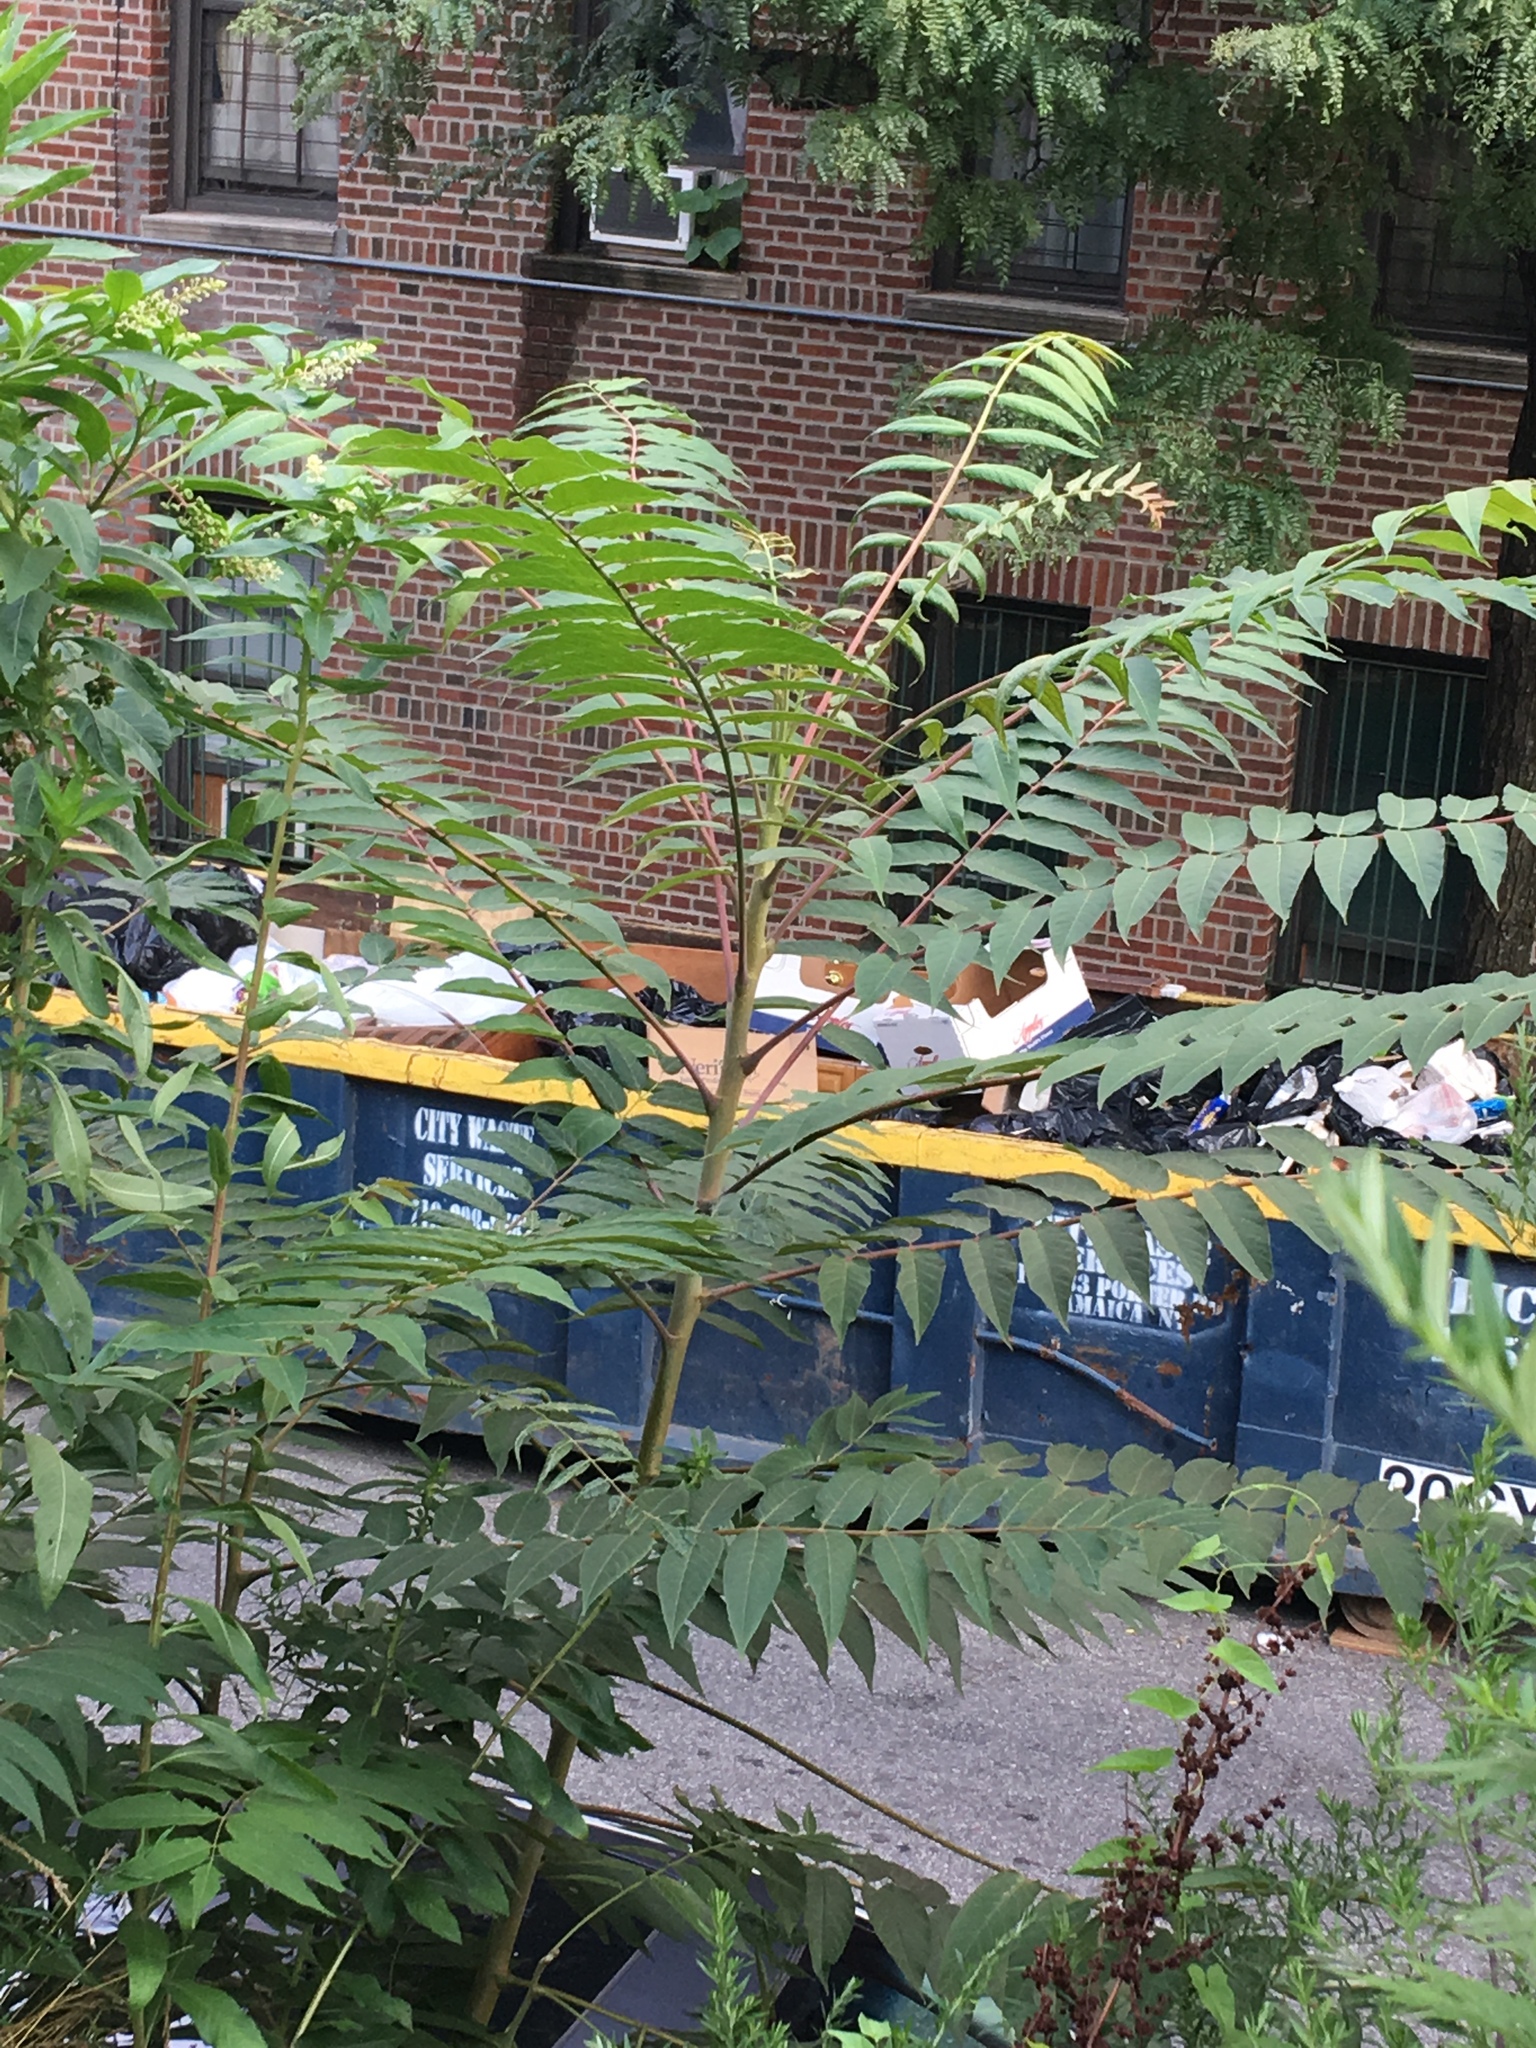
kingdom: Plantae
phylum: Tracheophyta
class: Magnoliopsida
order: Sapindales
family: Simaroubaceae
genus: Ailanthus
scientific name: Ailanthus altissima
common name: Tree-of-heaven
